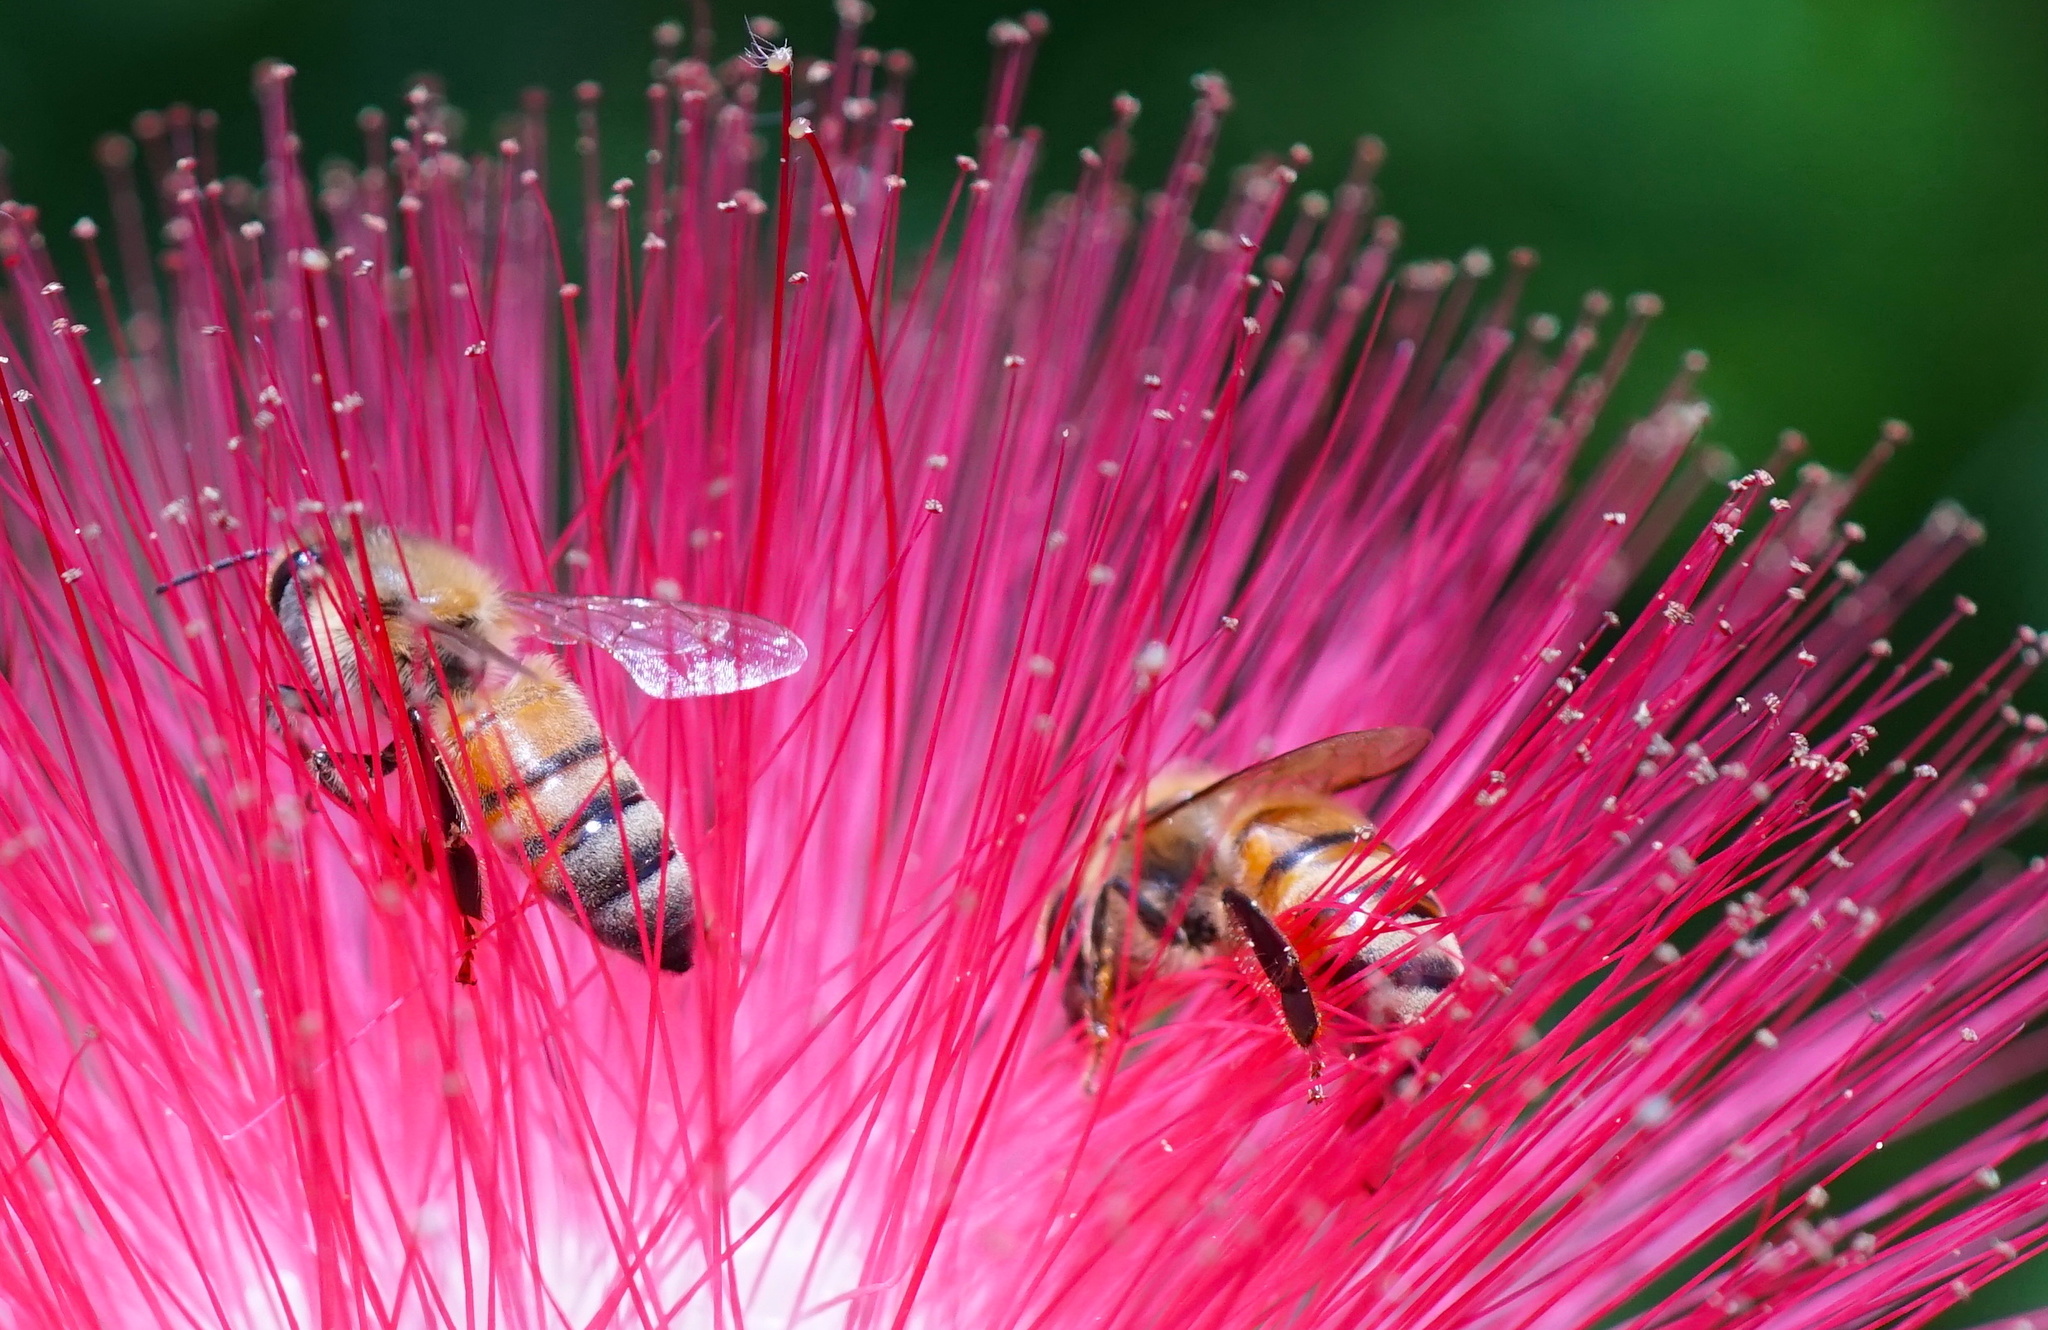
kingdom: Animalia
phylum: Arthropoda
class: Insecta
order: Hymenoptera
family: Apidae
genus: Apis
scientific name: Apis mellifera
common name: Honey bee
